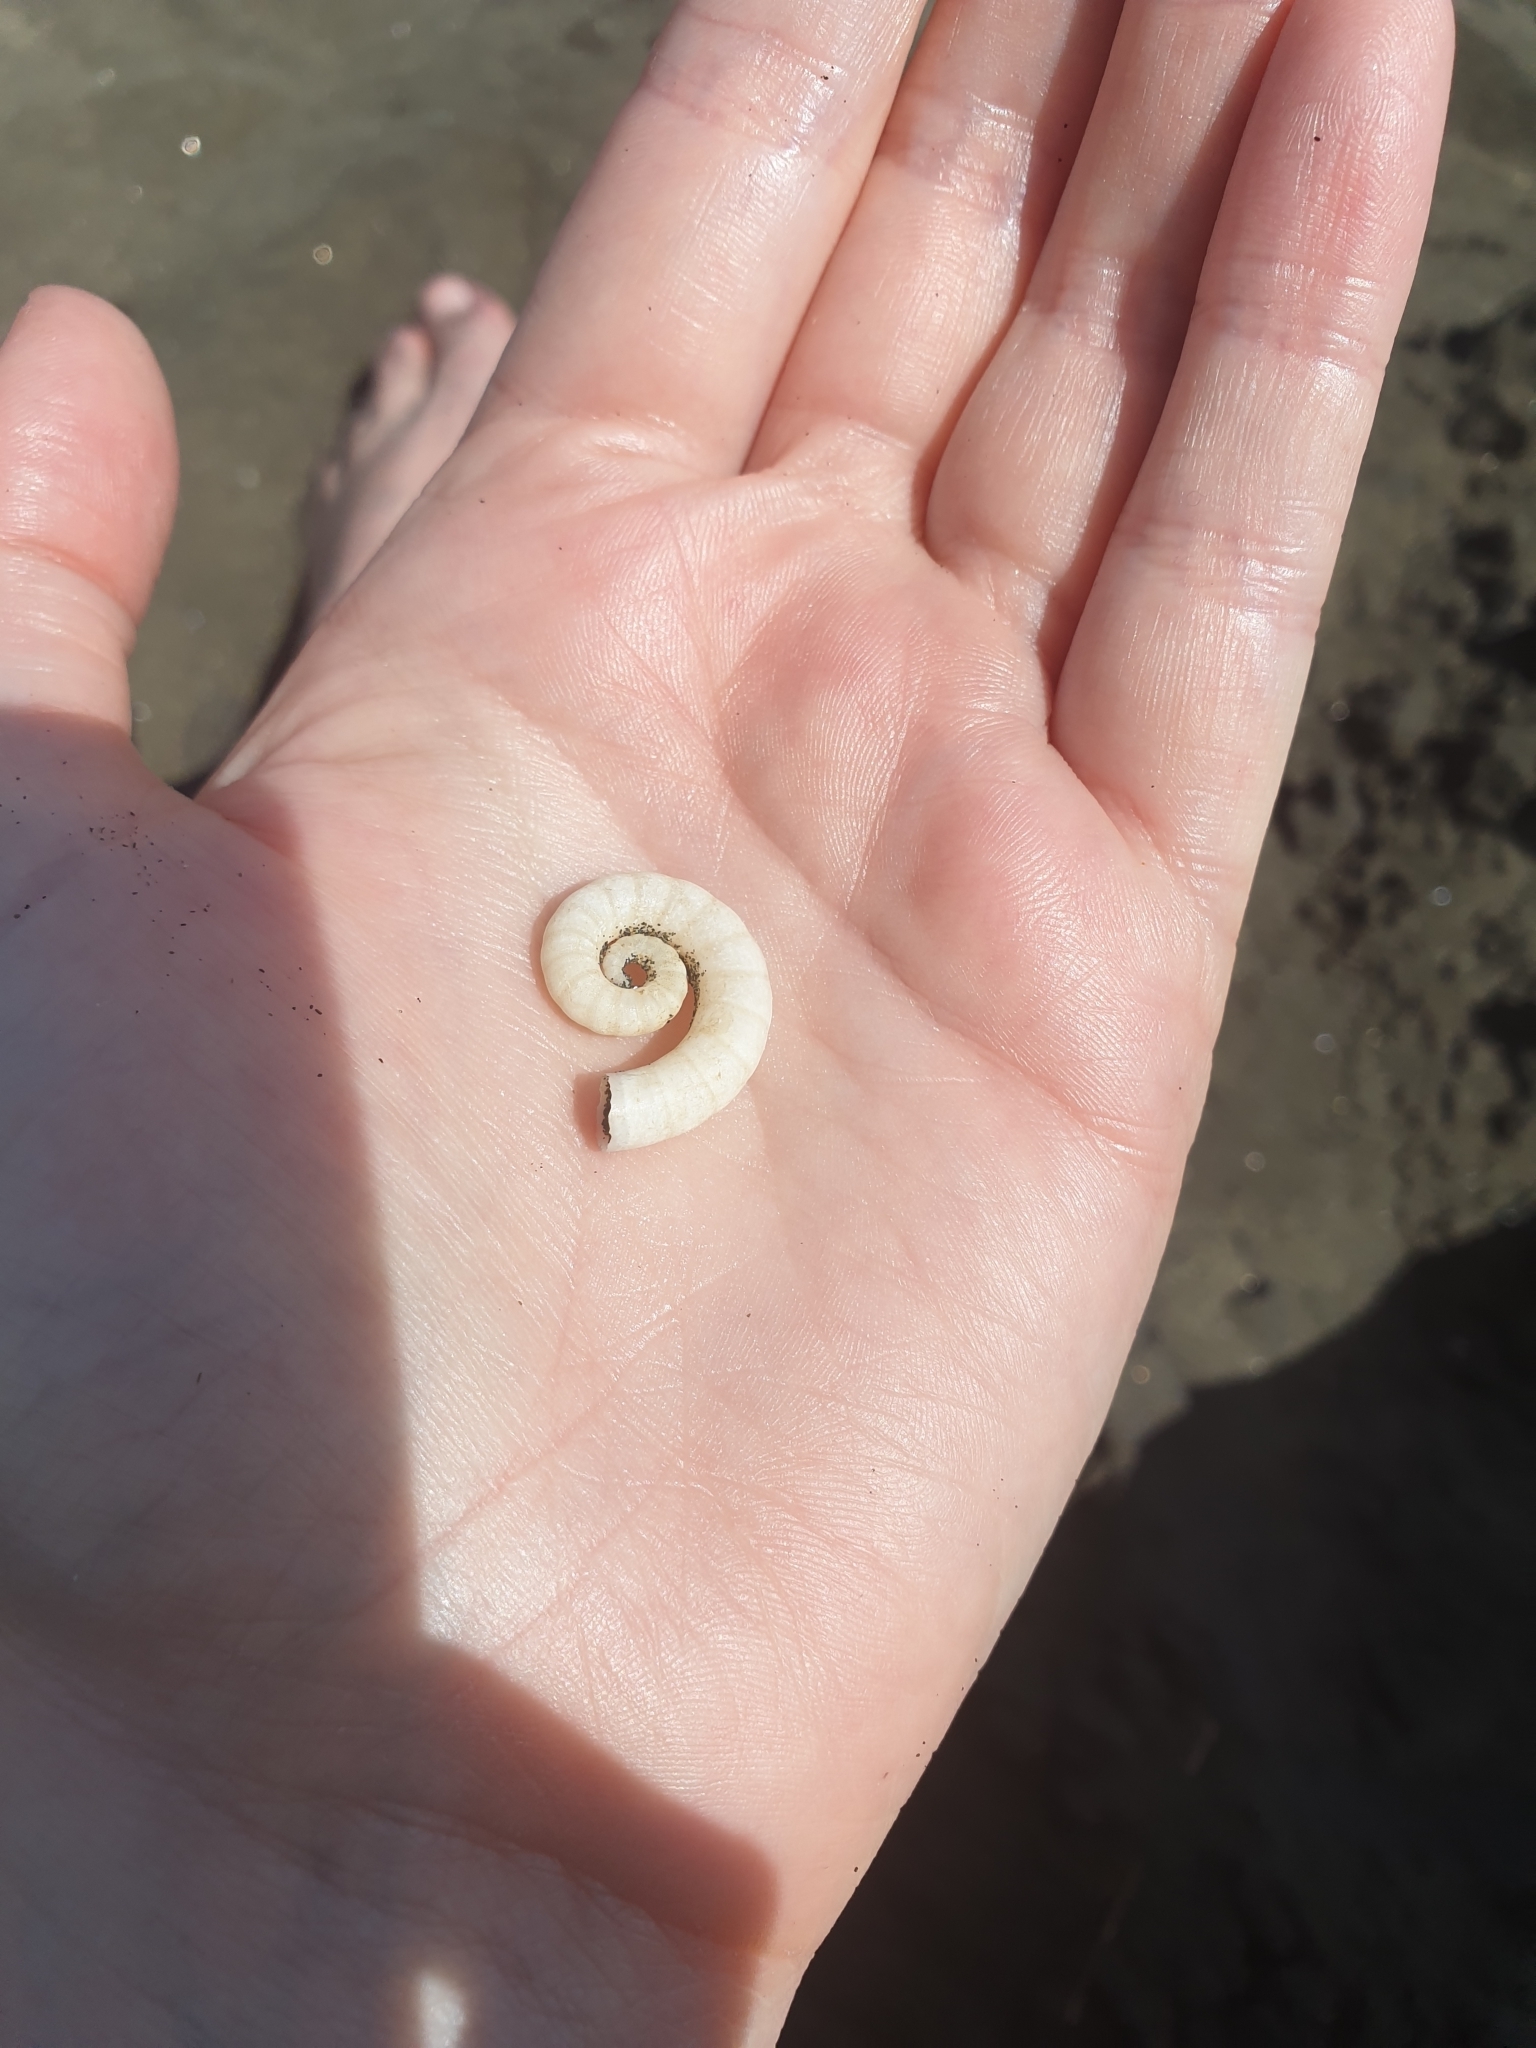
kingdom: Animalia
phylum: Mollusca
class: Cephalopoda
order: Spirulida
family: Spirulidae
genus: Spirula
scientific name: Spirula spirula
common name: Ram's horn squid
